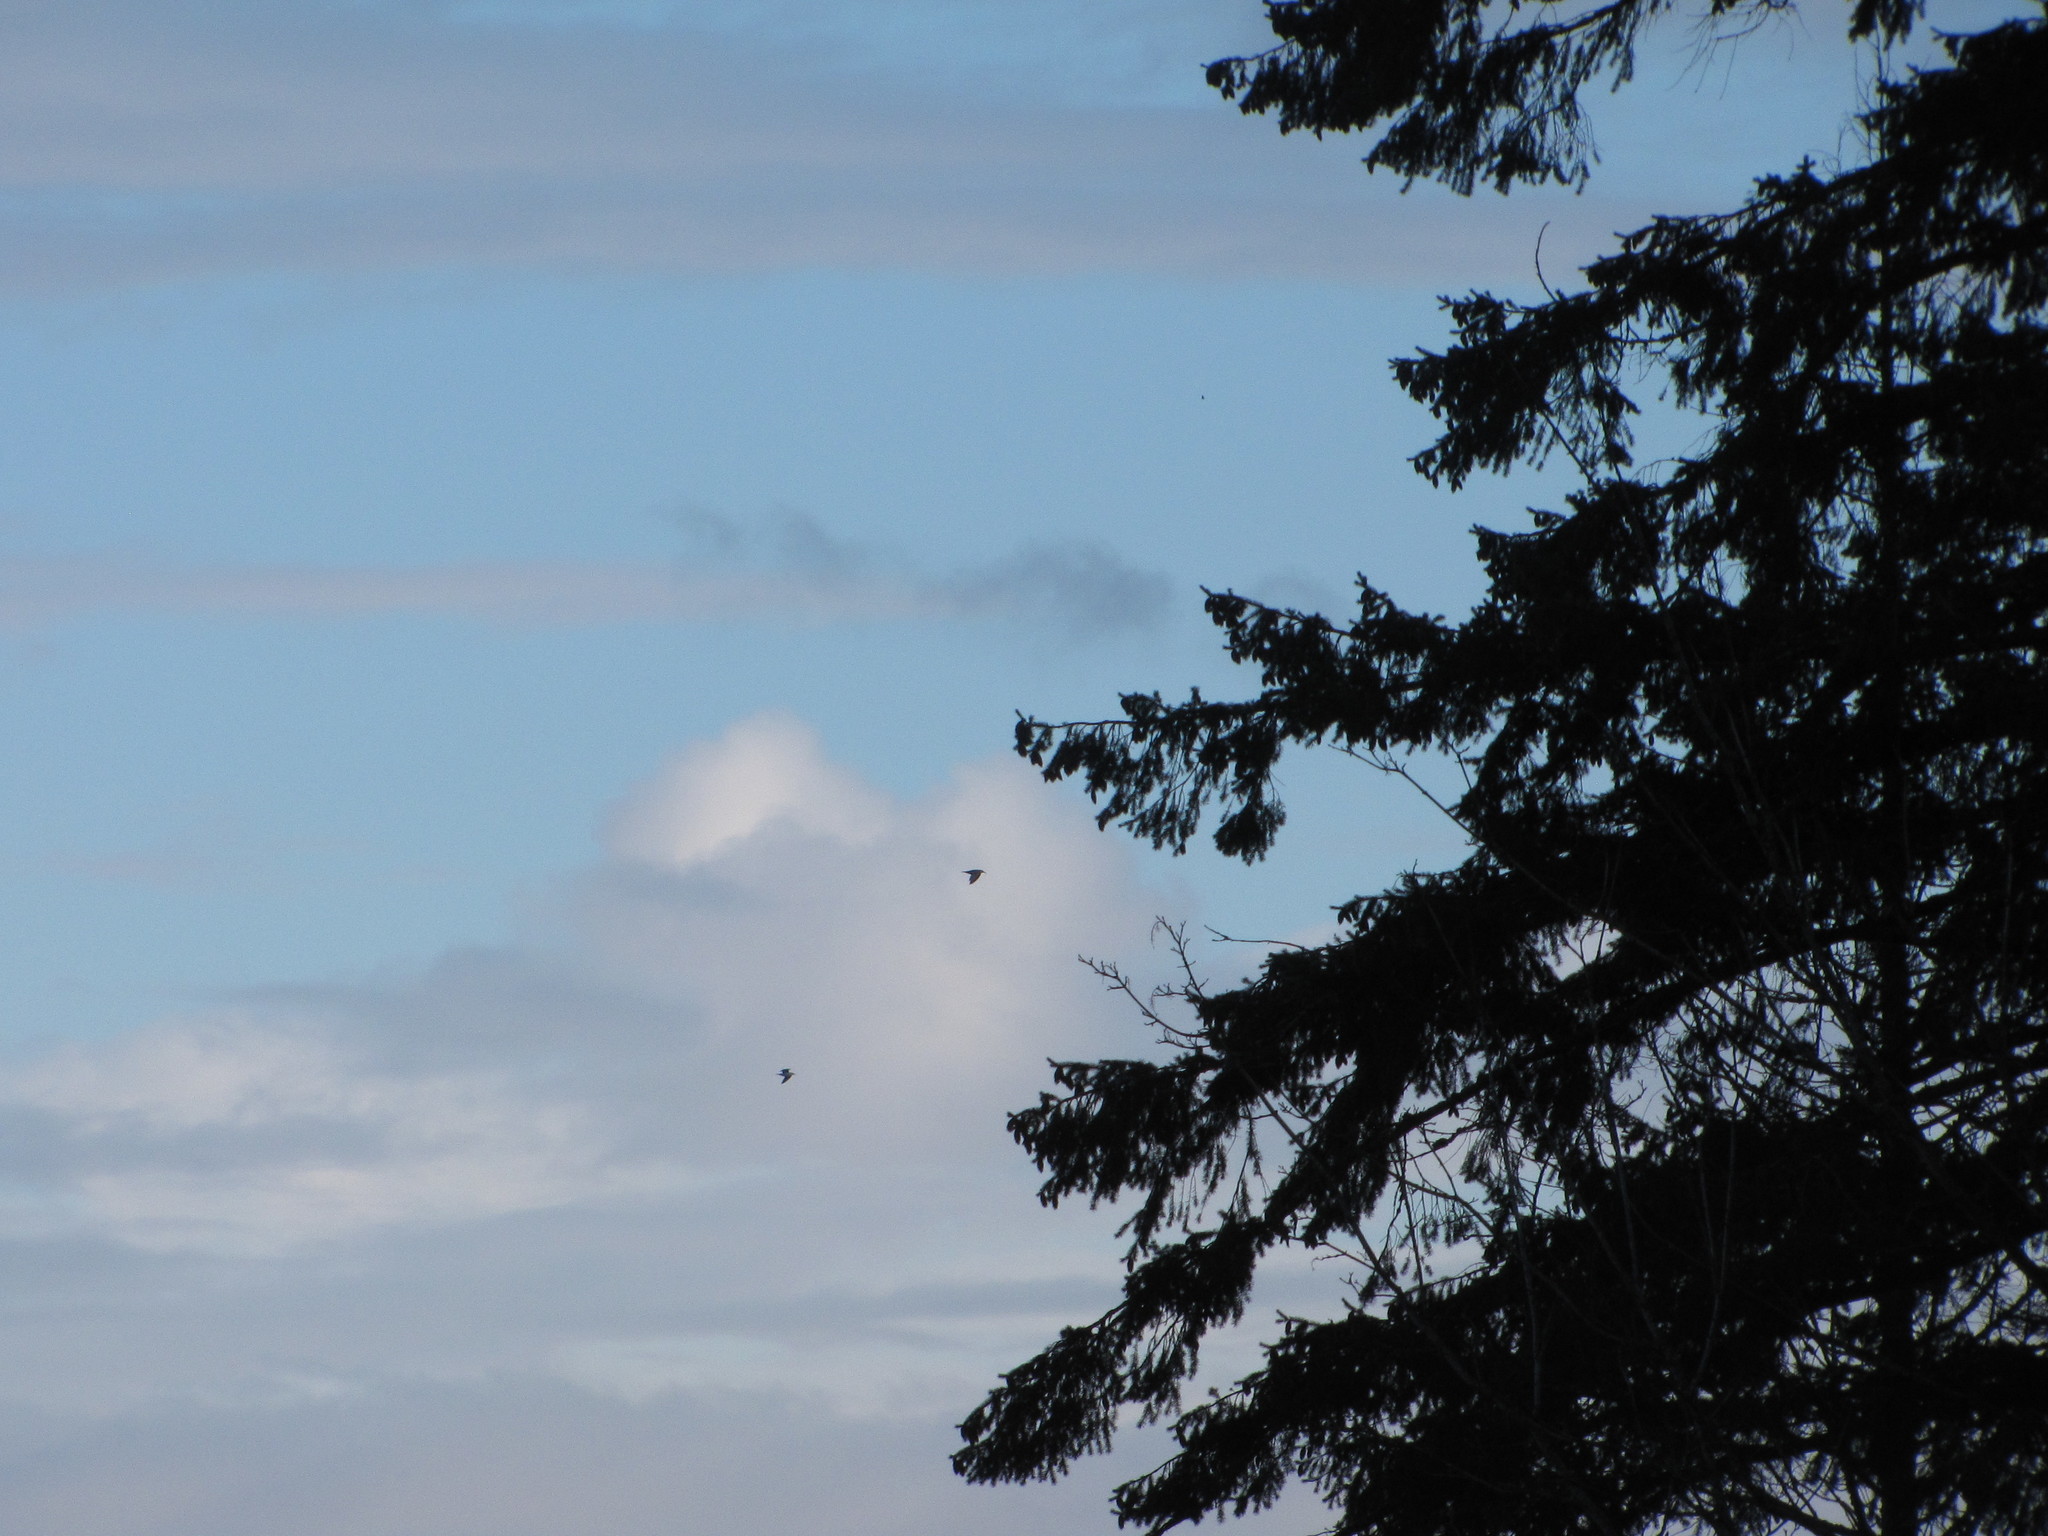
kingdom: Animalia
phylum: Chordata
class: Aves
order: Charadriiformes
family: Laridae
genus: Larus
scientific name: Larus
